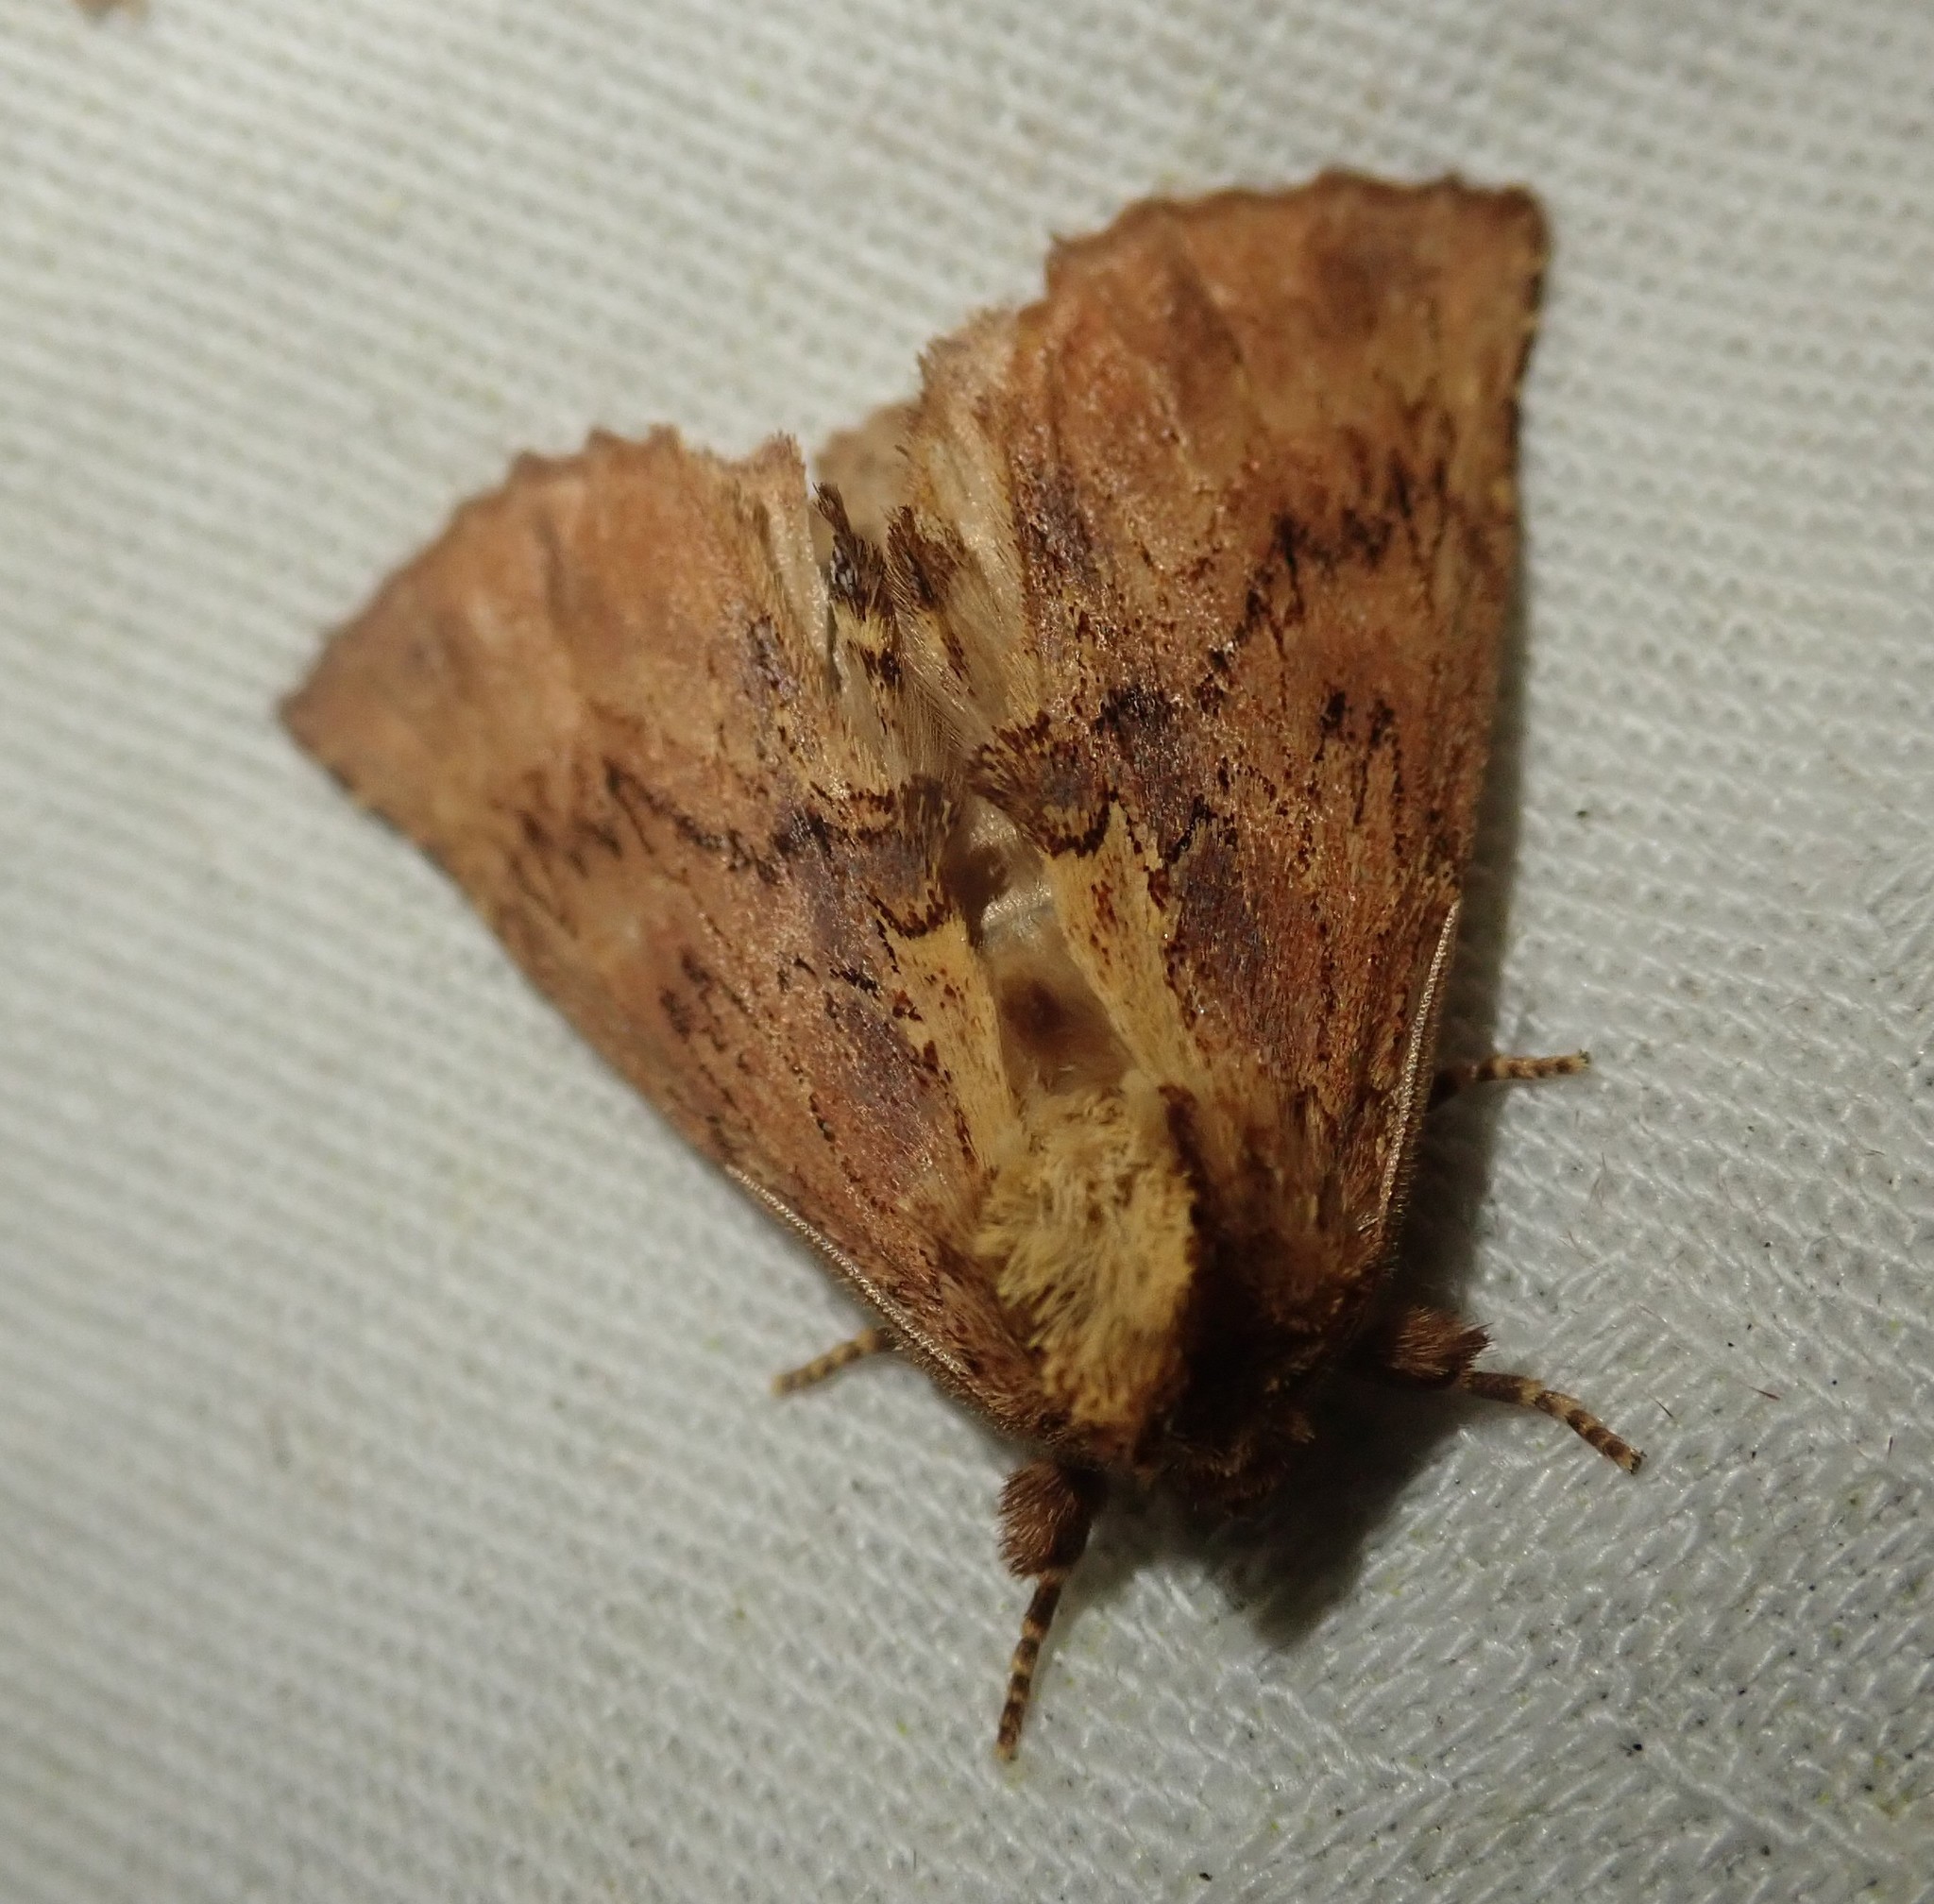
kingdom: Animalia
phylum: Arthropoda
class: Insecta
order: Lepidoptera
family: Notodontidae
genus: Ptilodon
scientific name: Ptilodon capucina
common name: Coxcomb prominent
